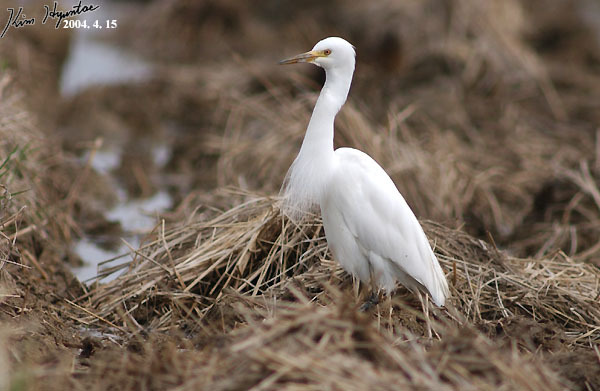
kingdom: Animalia
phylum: Chordata
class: Aves
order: Pelecaniformes
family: Ardeidae
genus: Egretta
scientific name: Egretta intermedia
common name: Intermediate egret
